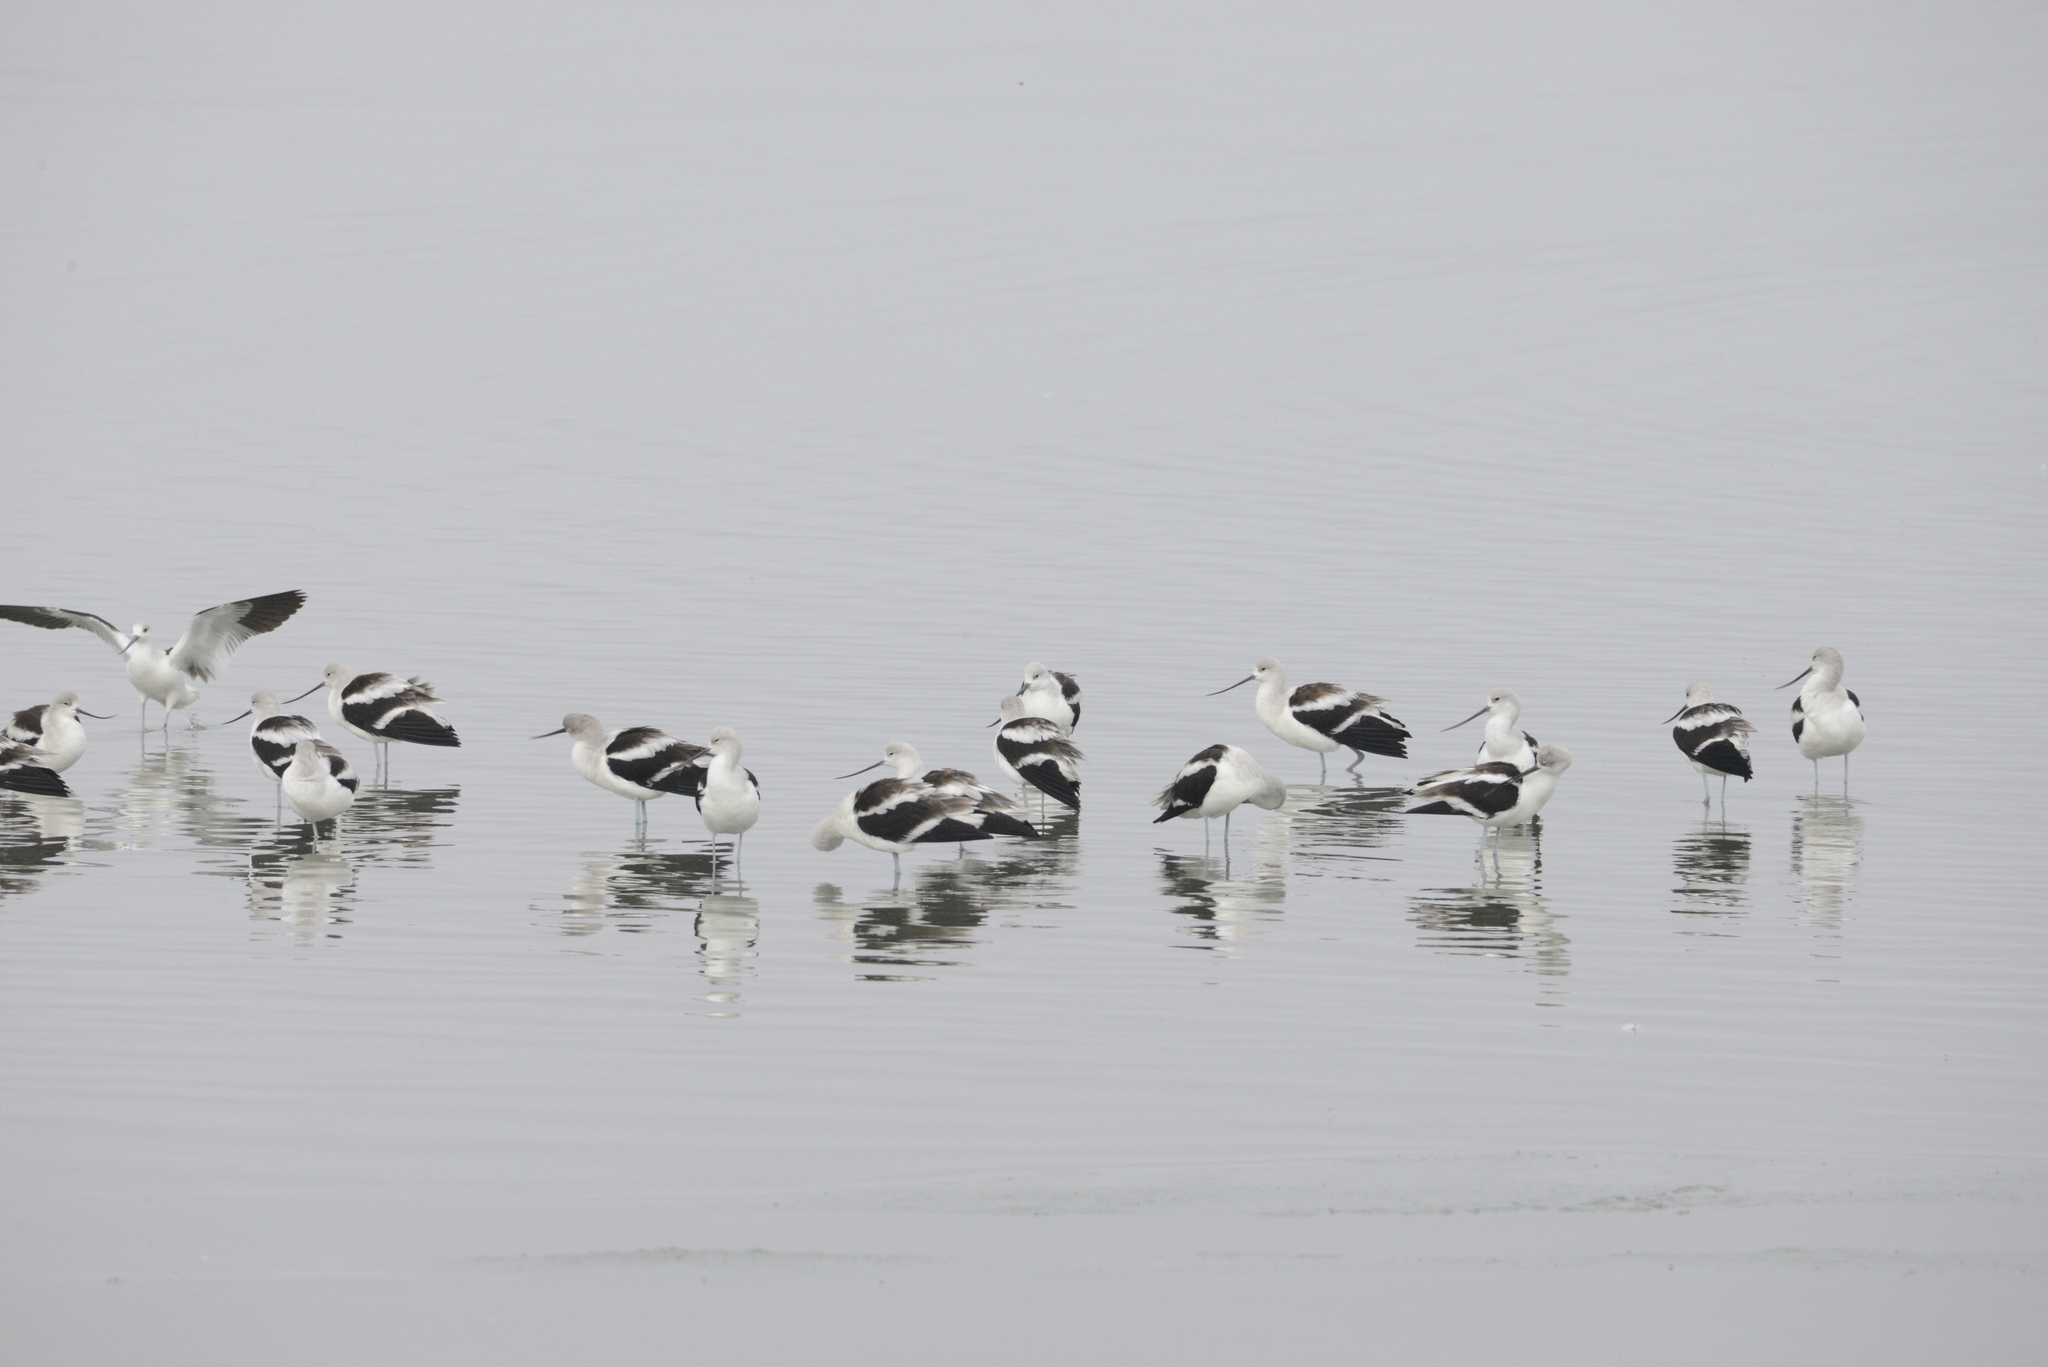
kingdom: Animalia
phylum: Chordata
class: Aves
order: Charadriiformes
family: Recurvirostridae
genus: Recurvirostra
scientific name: Recurvirostra americana
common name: American avocet
